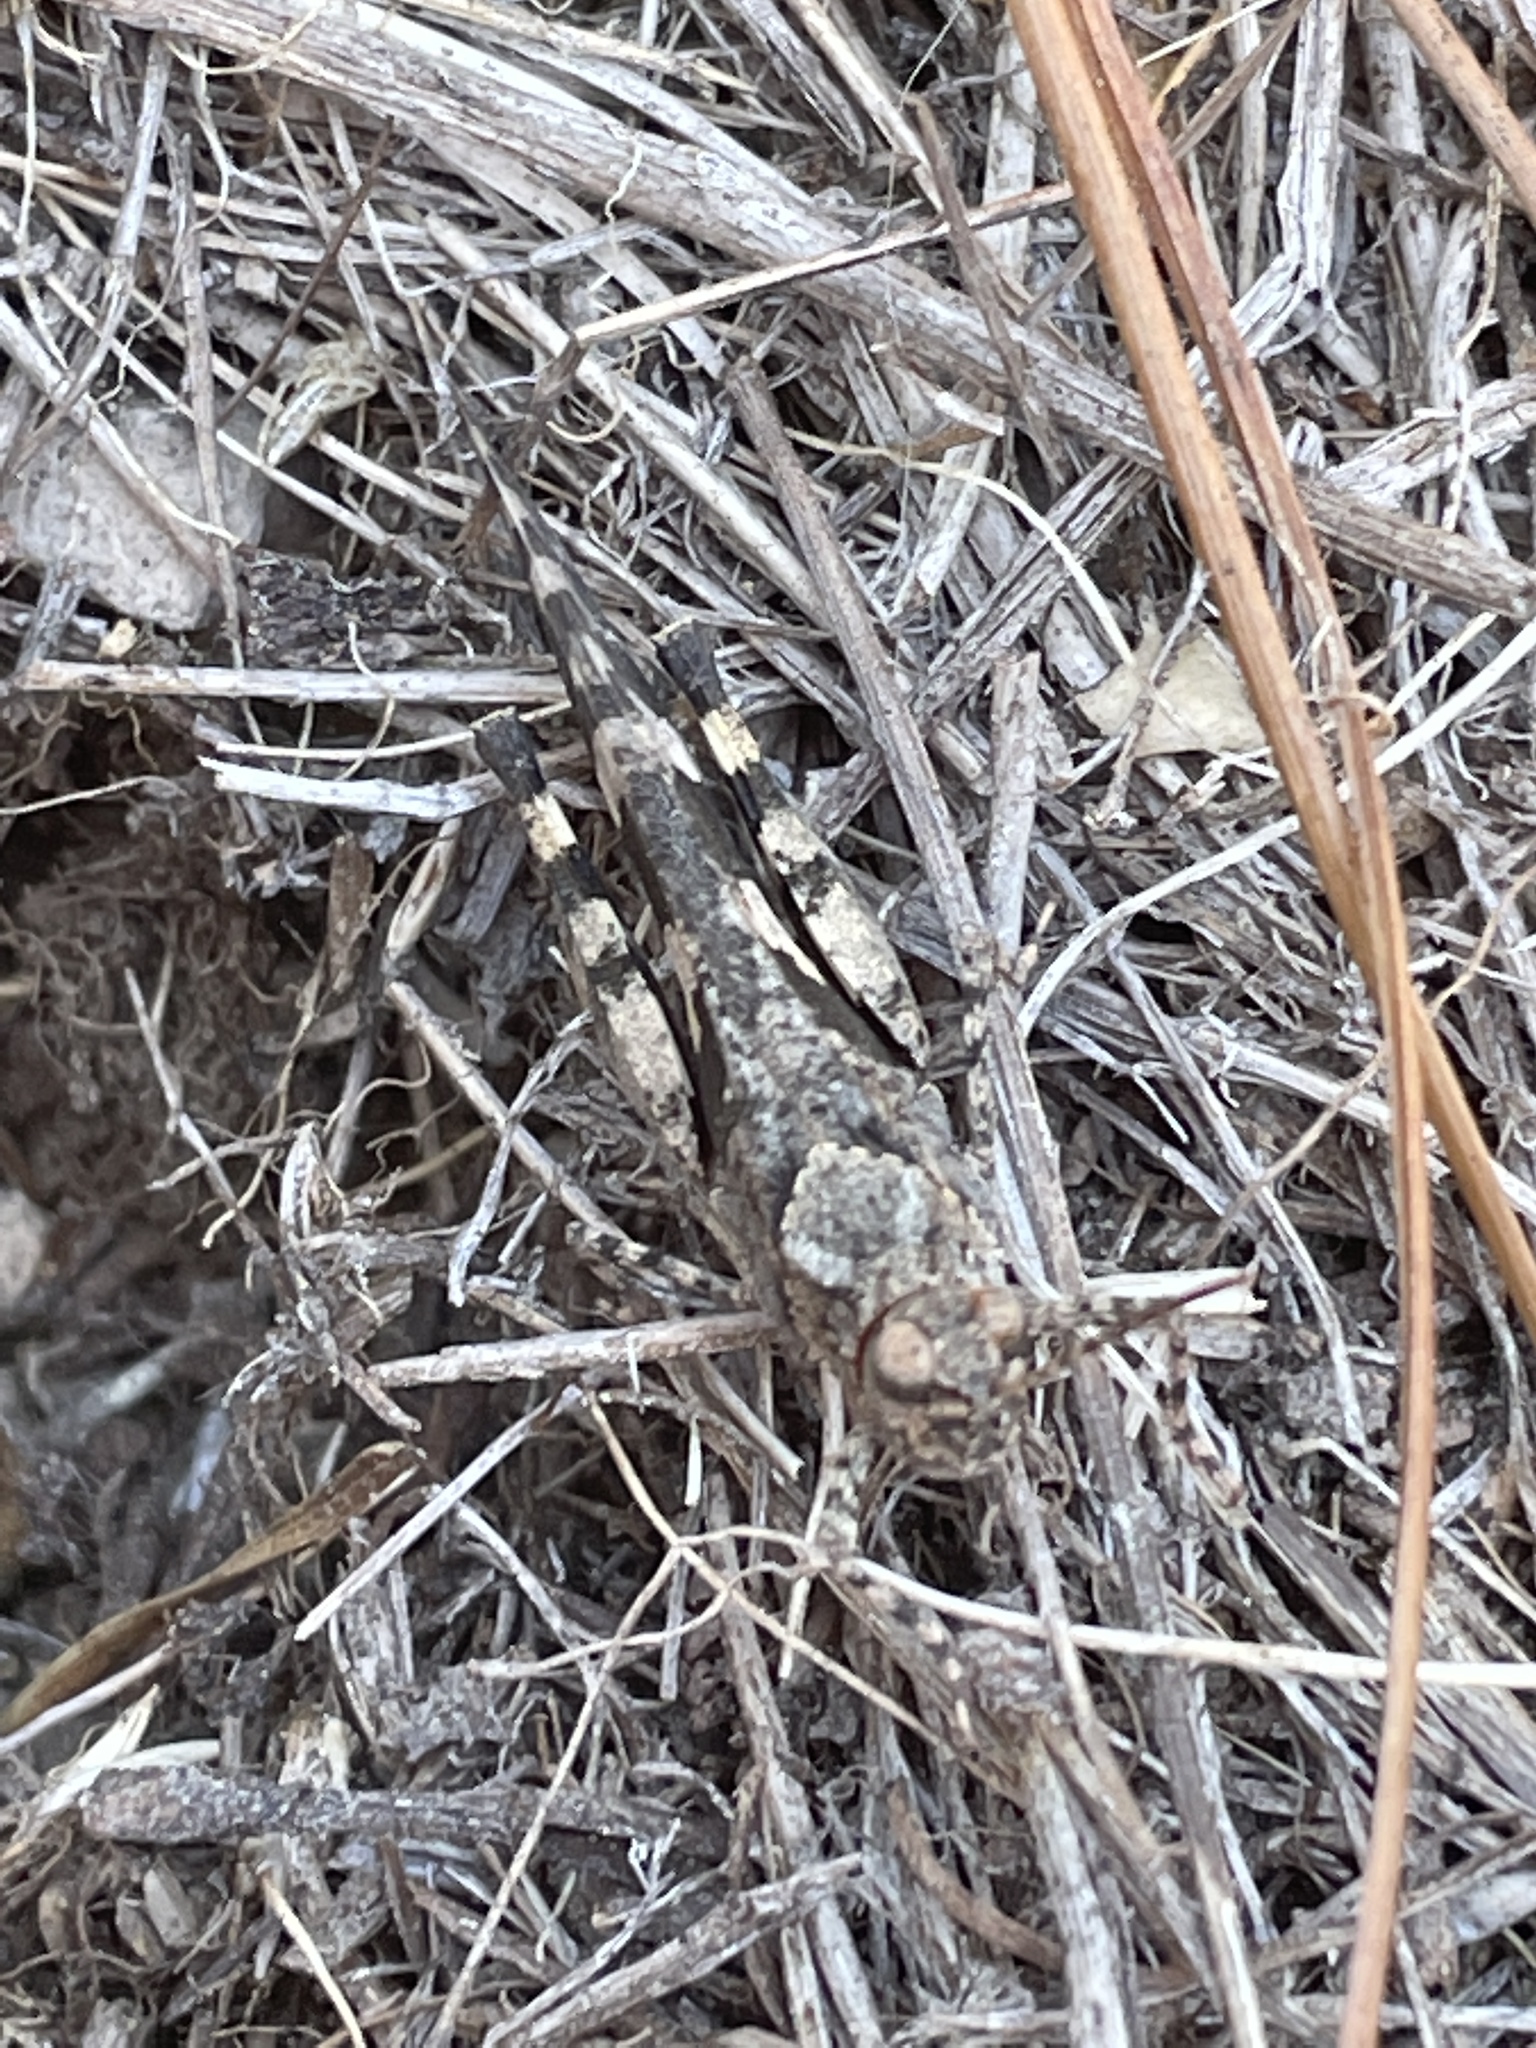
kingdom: Animalia
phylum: Arthropoda
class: Insecta
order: Orthoptera
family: Acrididae
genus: Trimerotropis
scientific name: Trimerotropis fontana
